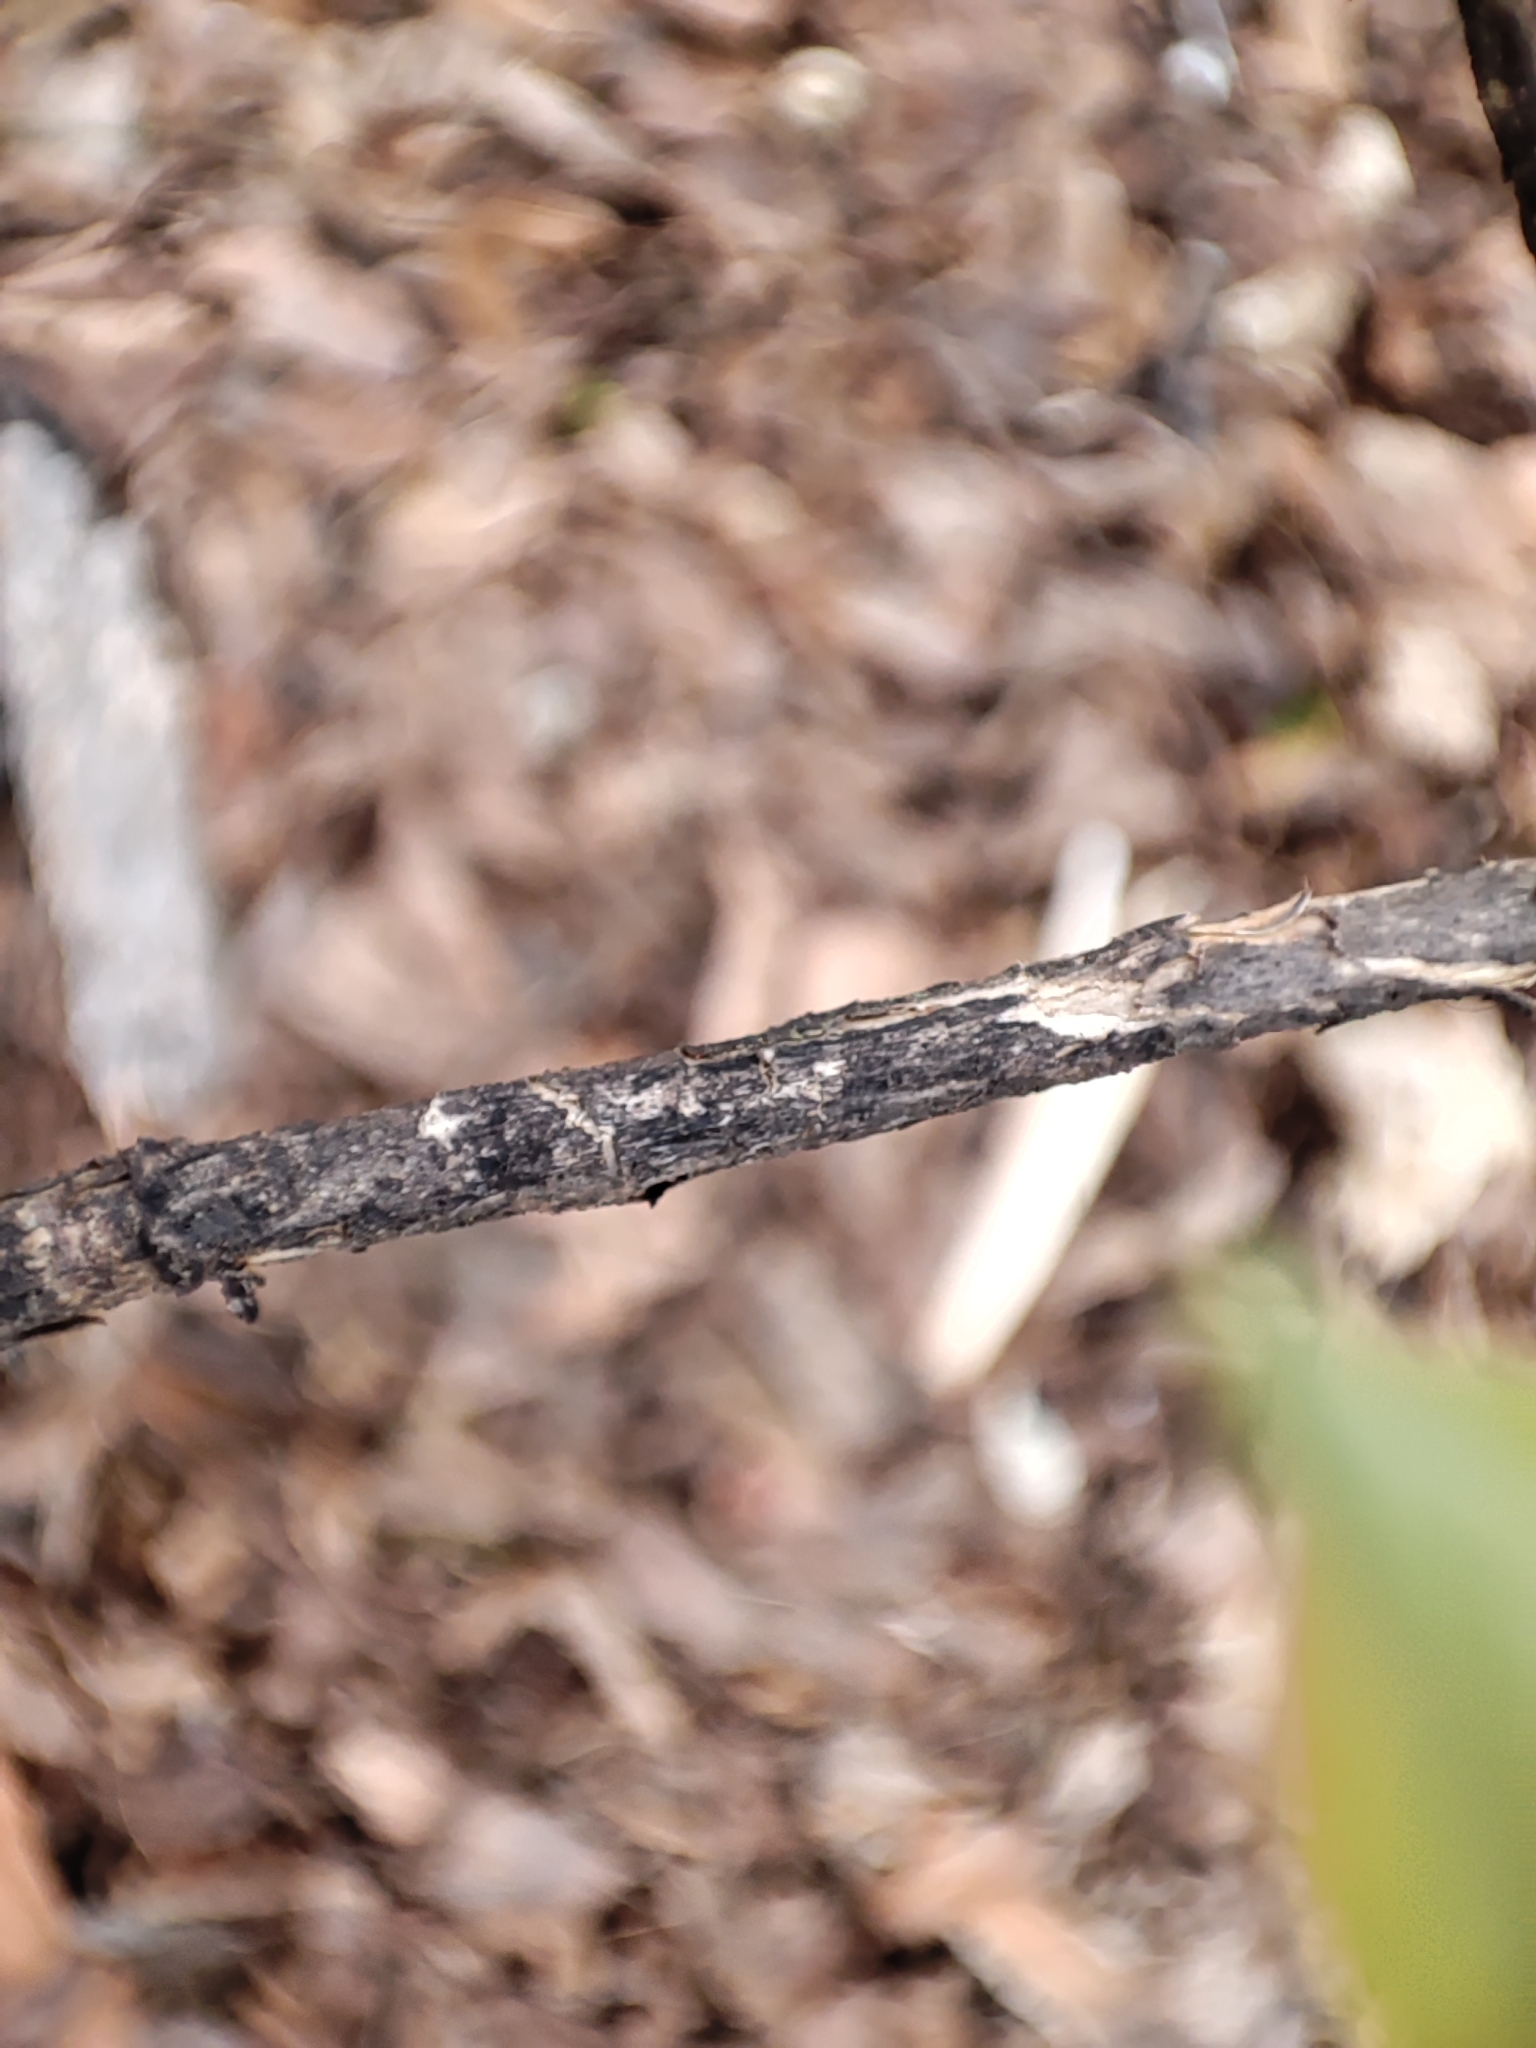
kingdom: Plantae
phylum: Tracheophyta
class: Magnoliopsida
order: Dipsacales
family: Caprifoliaceae
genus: Lonicera
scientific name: Lonicera xylosteum
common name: Fly honeysuckle
